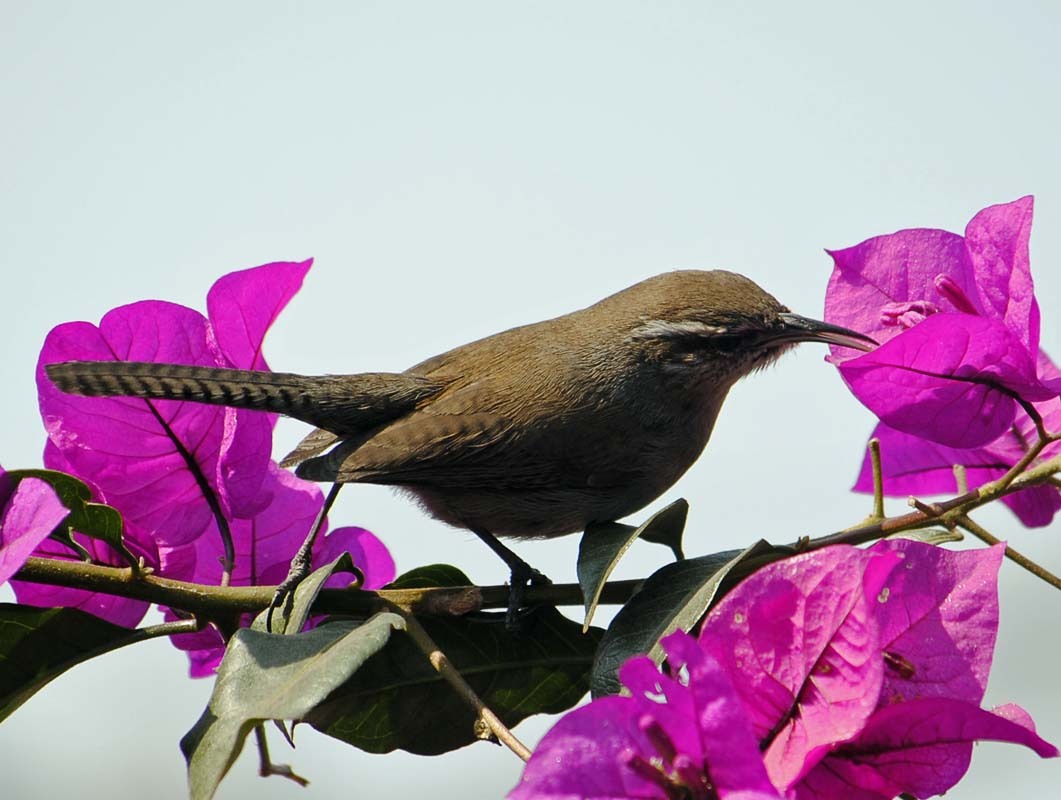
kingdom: Animalia
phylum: Chordata
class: Aves
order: Passeriformes
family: Troglodytidae
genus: Thryomanes
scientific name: Thryomanes bewickii
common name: Bewick's wren
